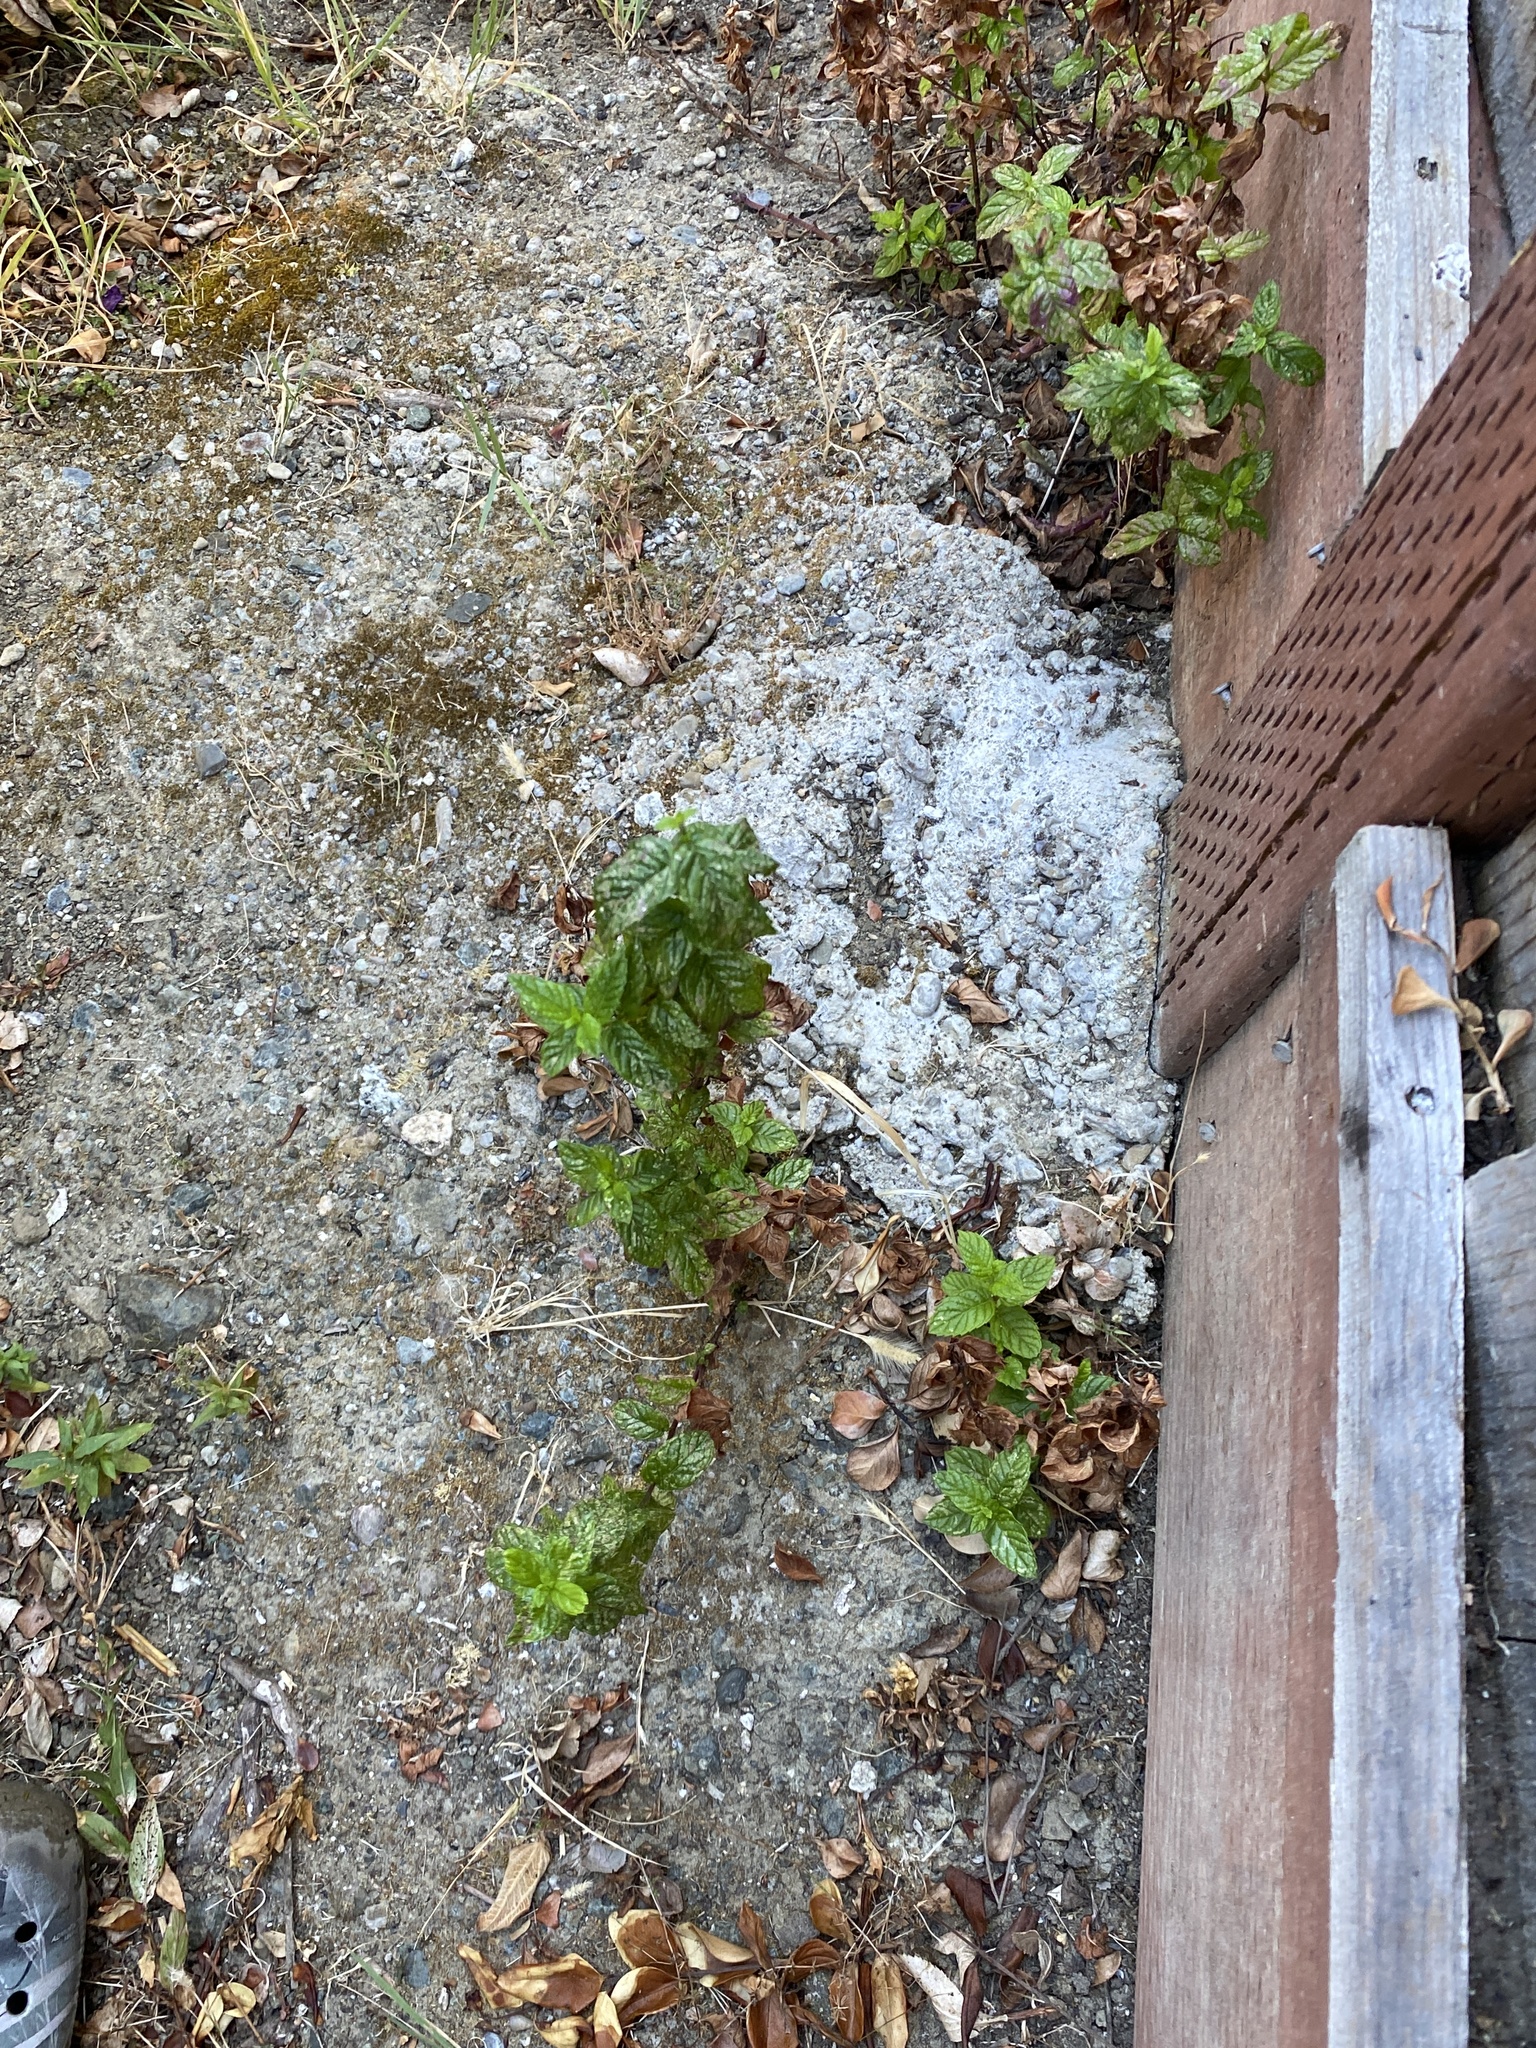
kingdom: Plantae
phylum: Tracheophyta
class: Magnoliopsida
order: Lamiales
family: Lamiaceae
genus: Mentha
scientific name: Mentha spicata
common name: Spearmint
